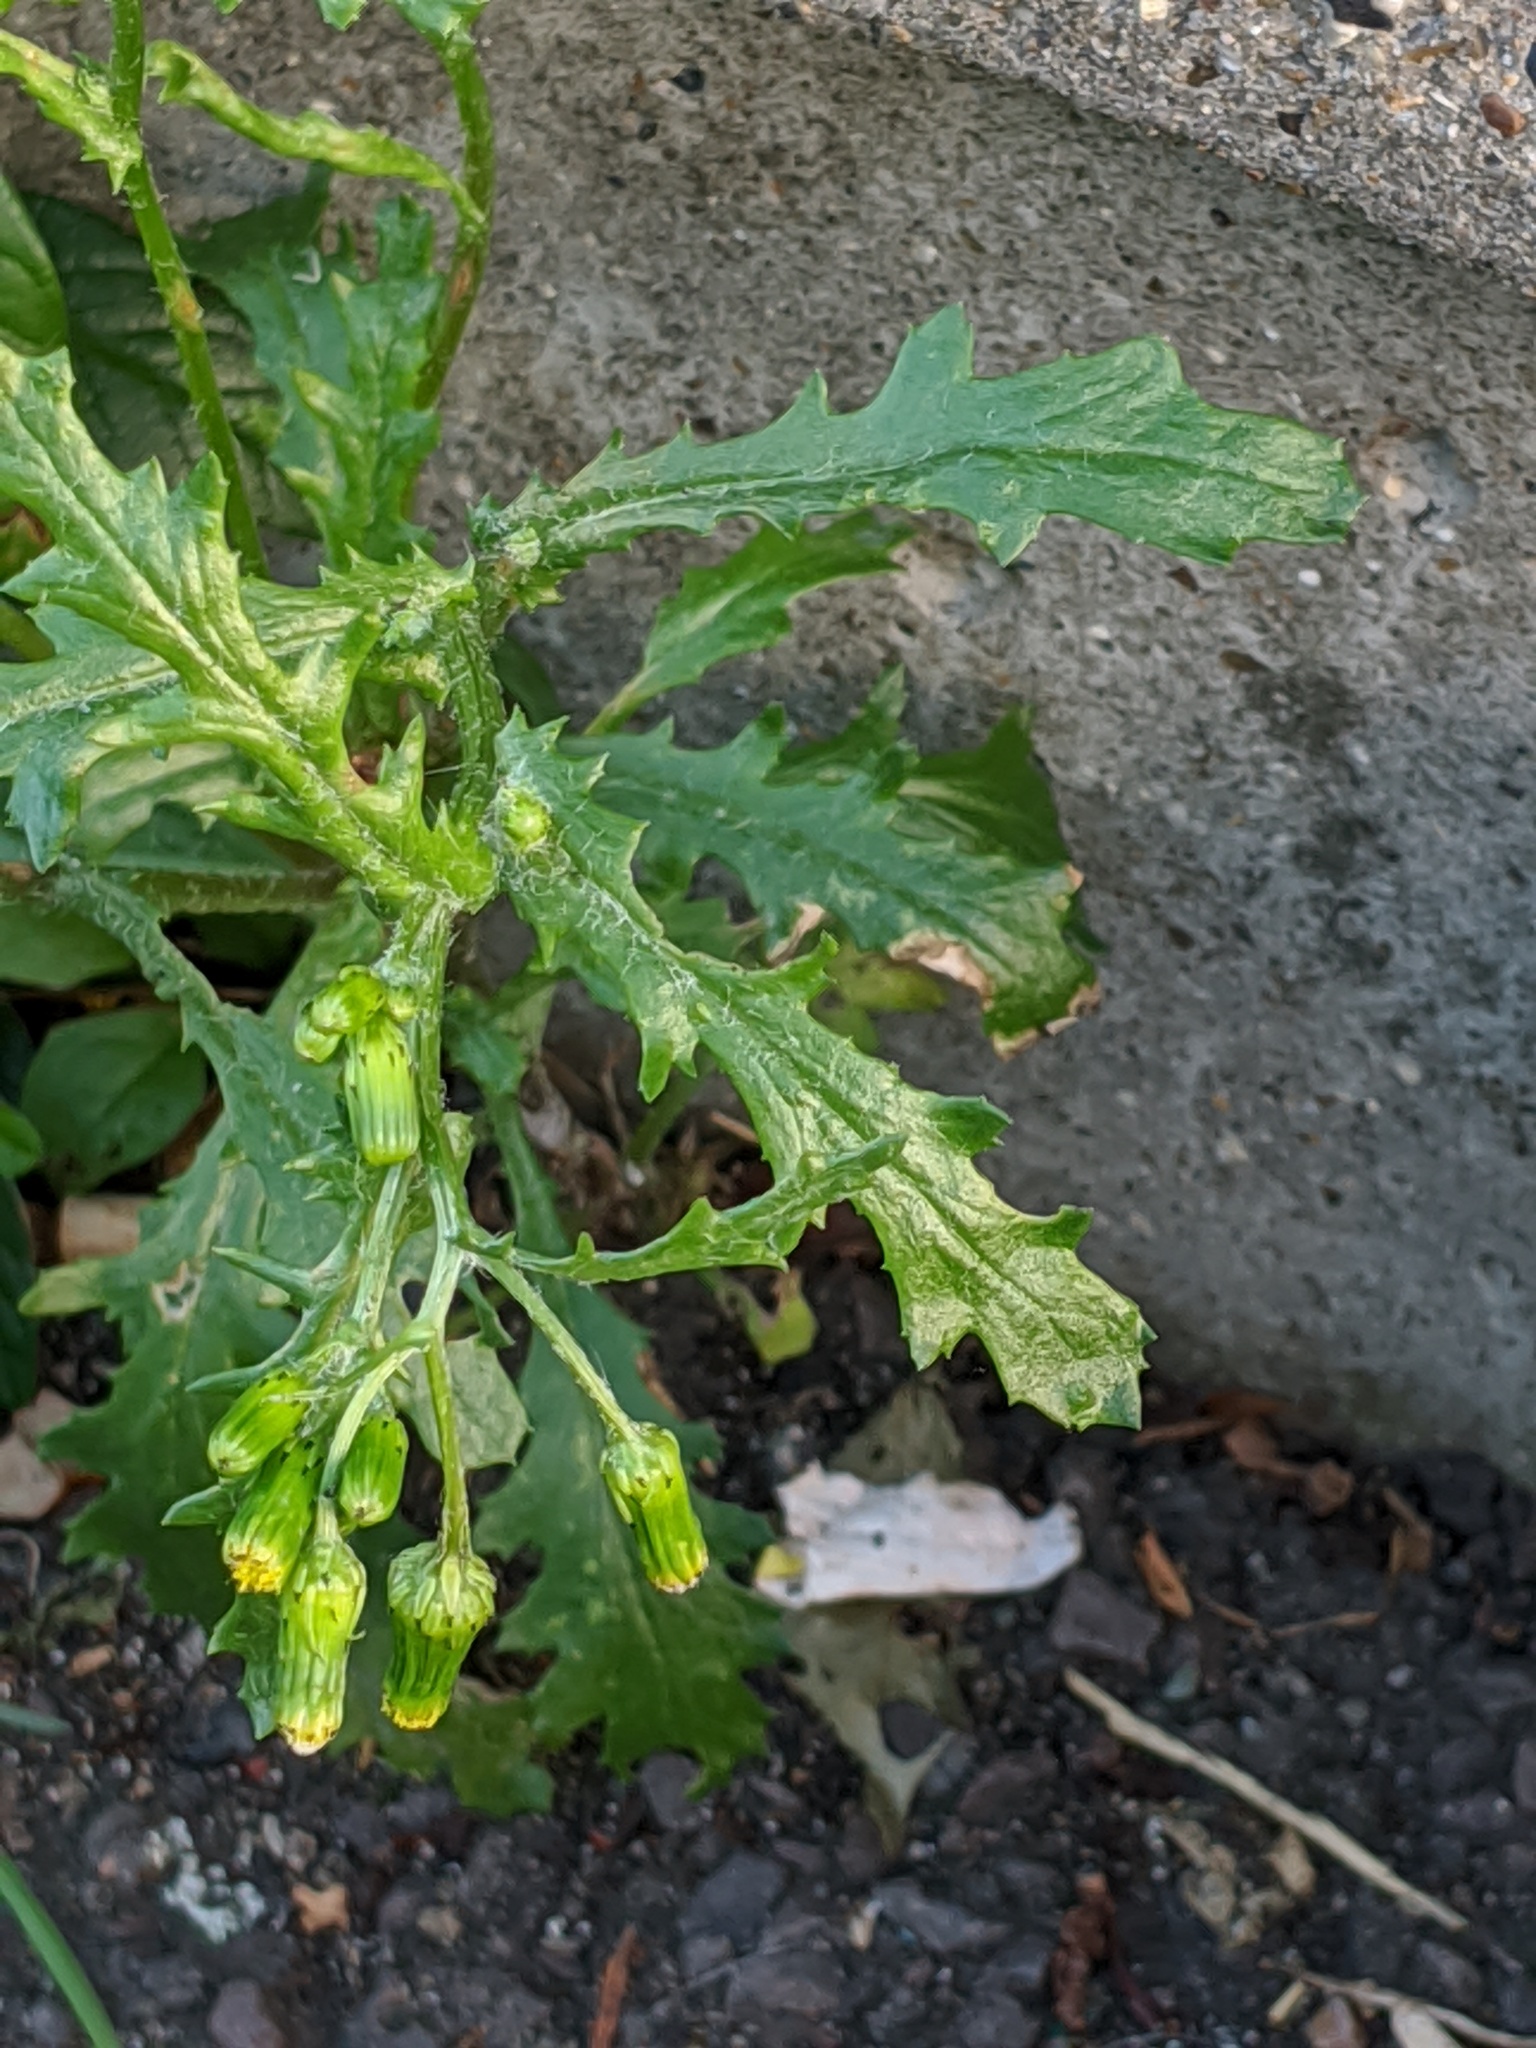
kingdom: Plantae
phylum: Tracheophyta
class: Magnoliopsida
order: Asterales
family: Asteraceae
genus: Senecio
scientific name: Senecio vulgaris
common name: Old-man-in-the-spring
